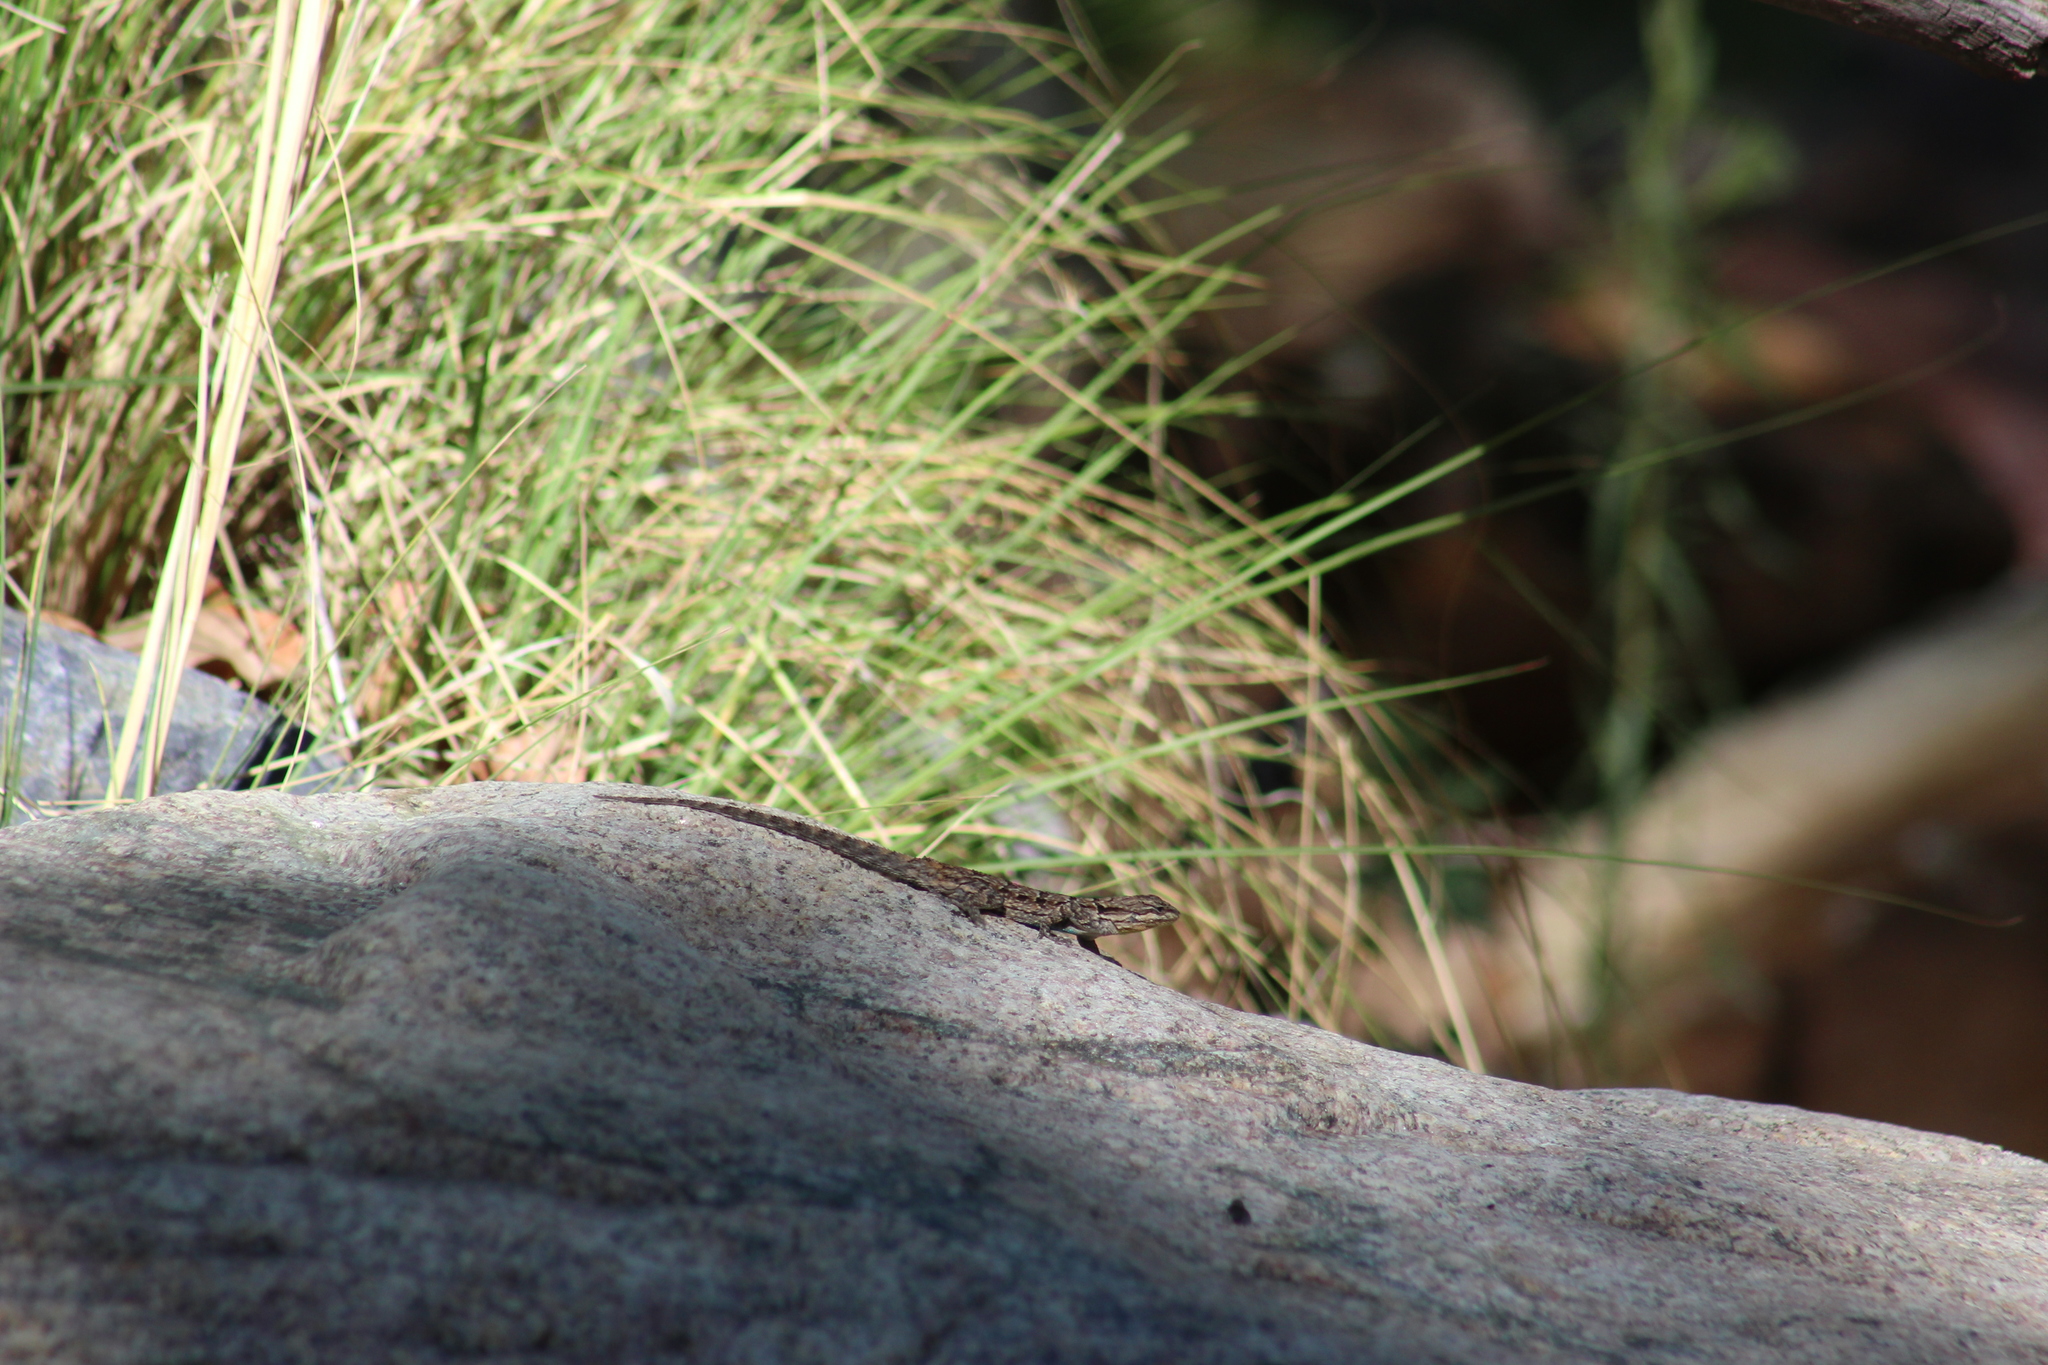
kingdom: Animalia
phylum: Chordata
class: Squamata
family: Phrynosomatidae
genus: Urosaurus
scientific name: Urosaurus ornatus
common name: Ornate tree lizard
